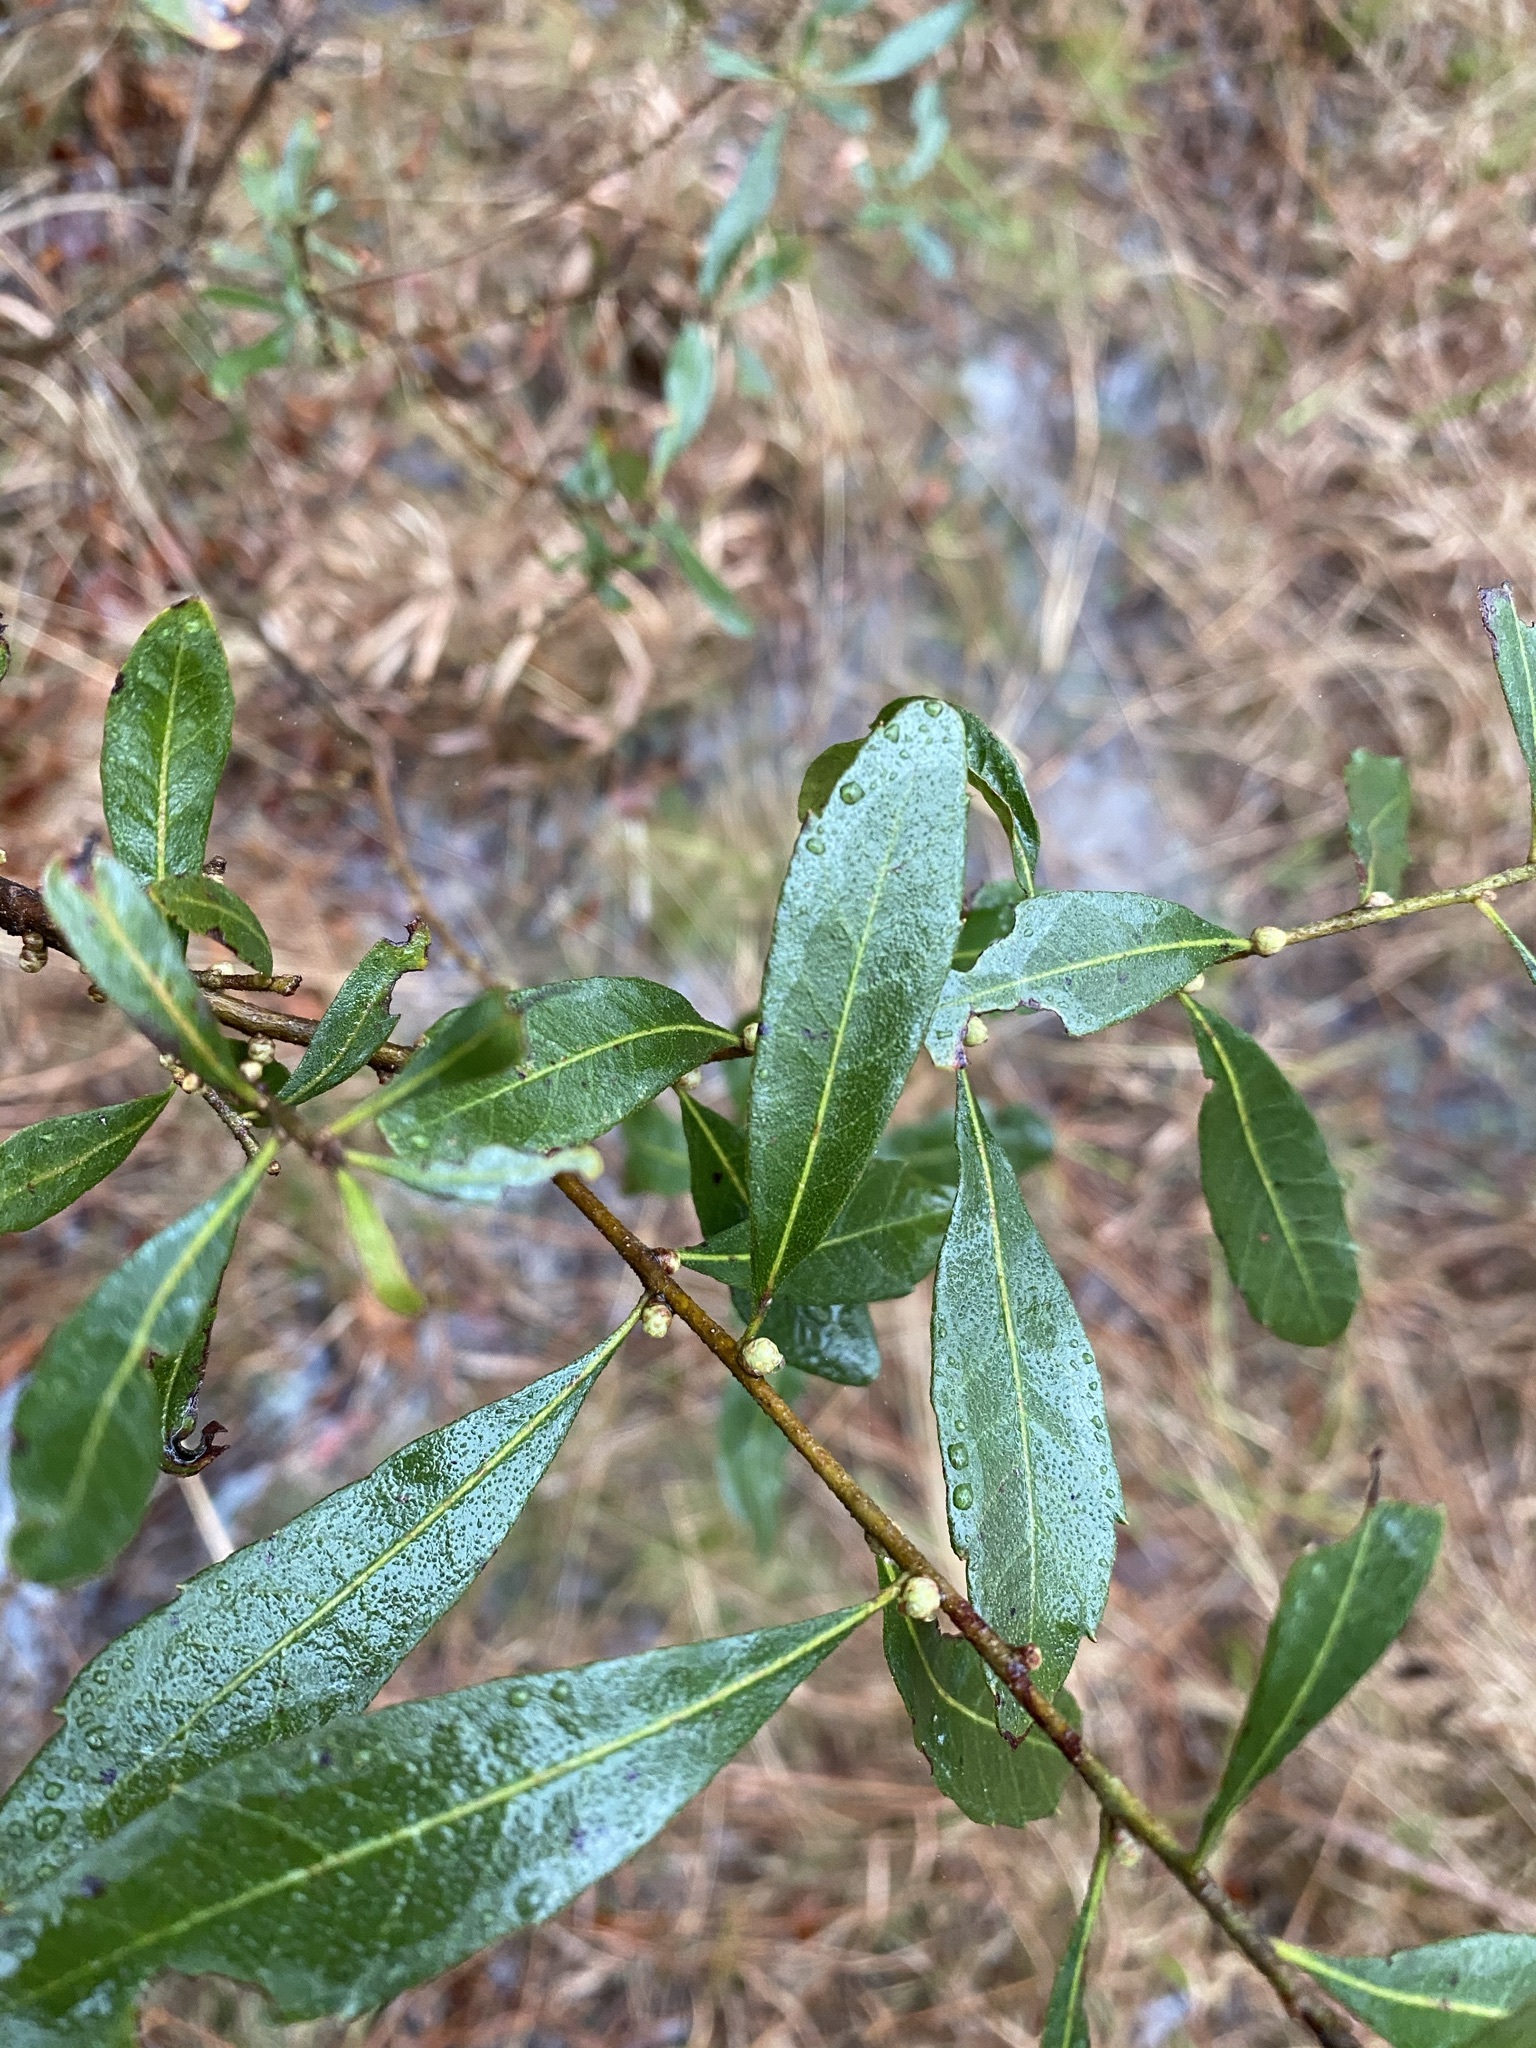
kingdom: Plantae
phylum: Tracheophyta
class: Magnoliopsida
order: Fagales
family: Myricaceae
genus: Morella
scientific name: Morella cerifera
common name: Wax myrtle
